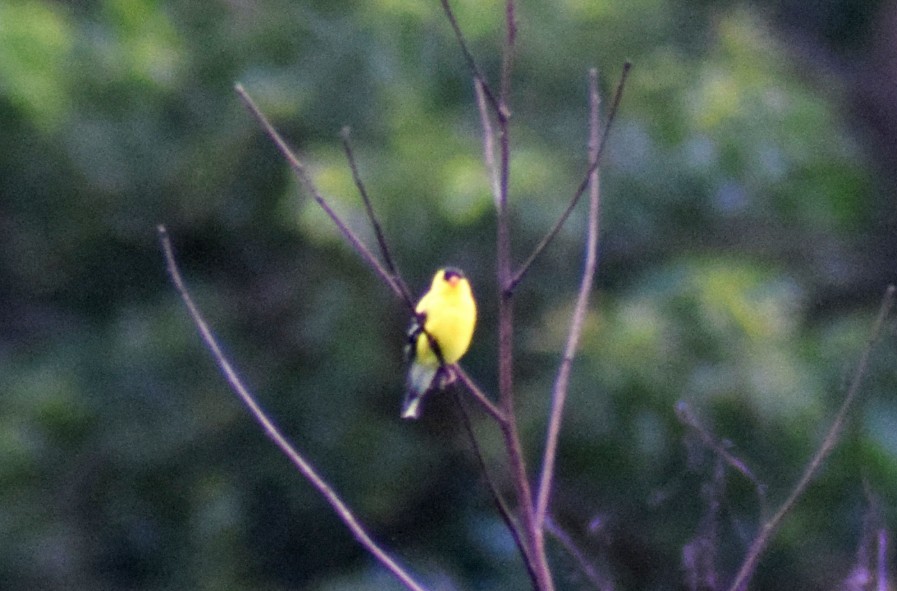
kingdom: Animalia
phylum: Chordata
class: Aves
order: Passeriformes
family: Fringillidae
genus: Spinus
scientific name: Spinus tristis
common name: American goldfinch
